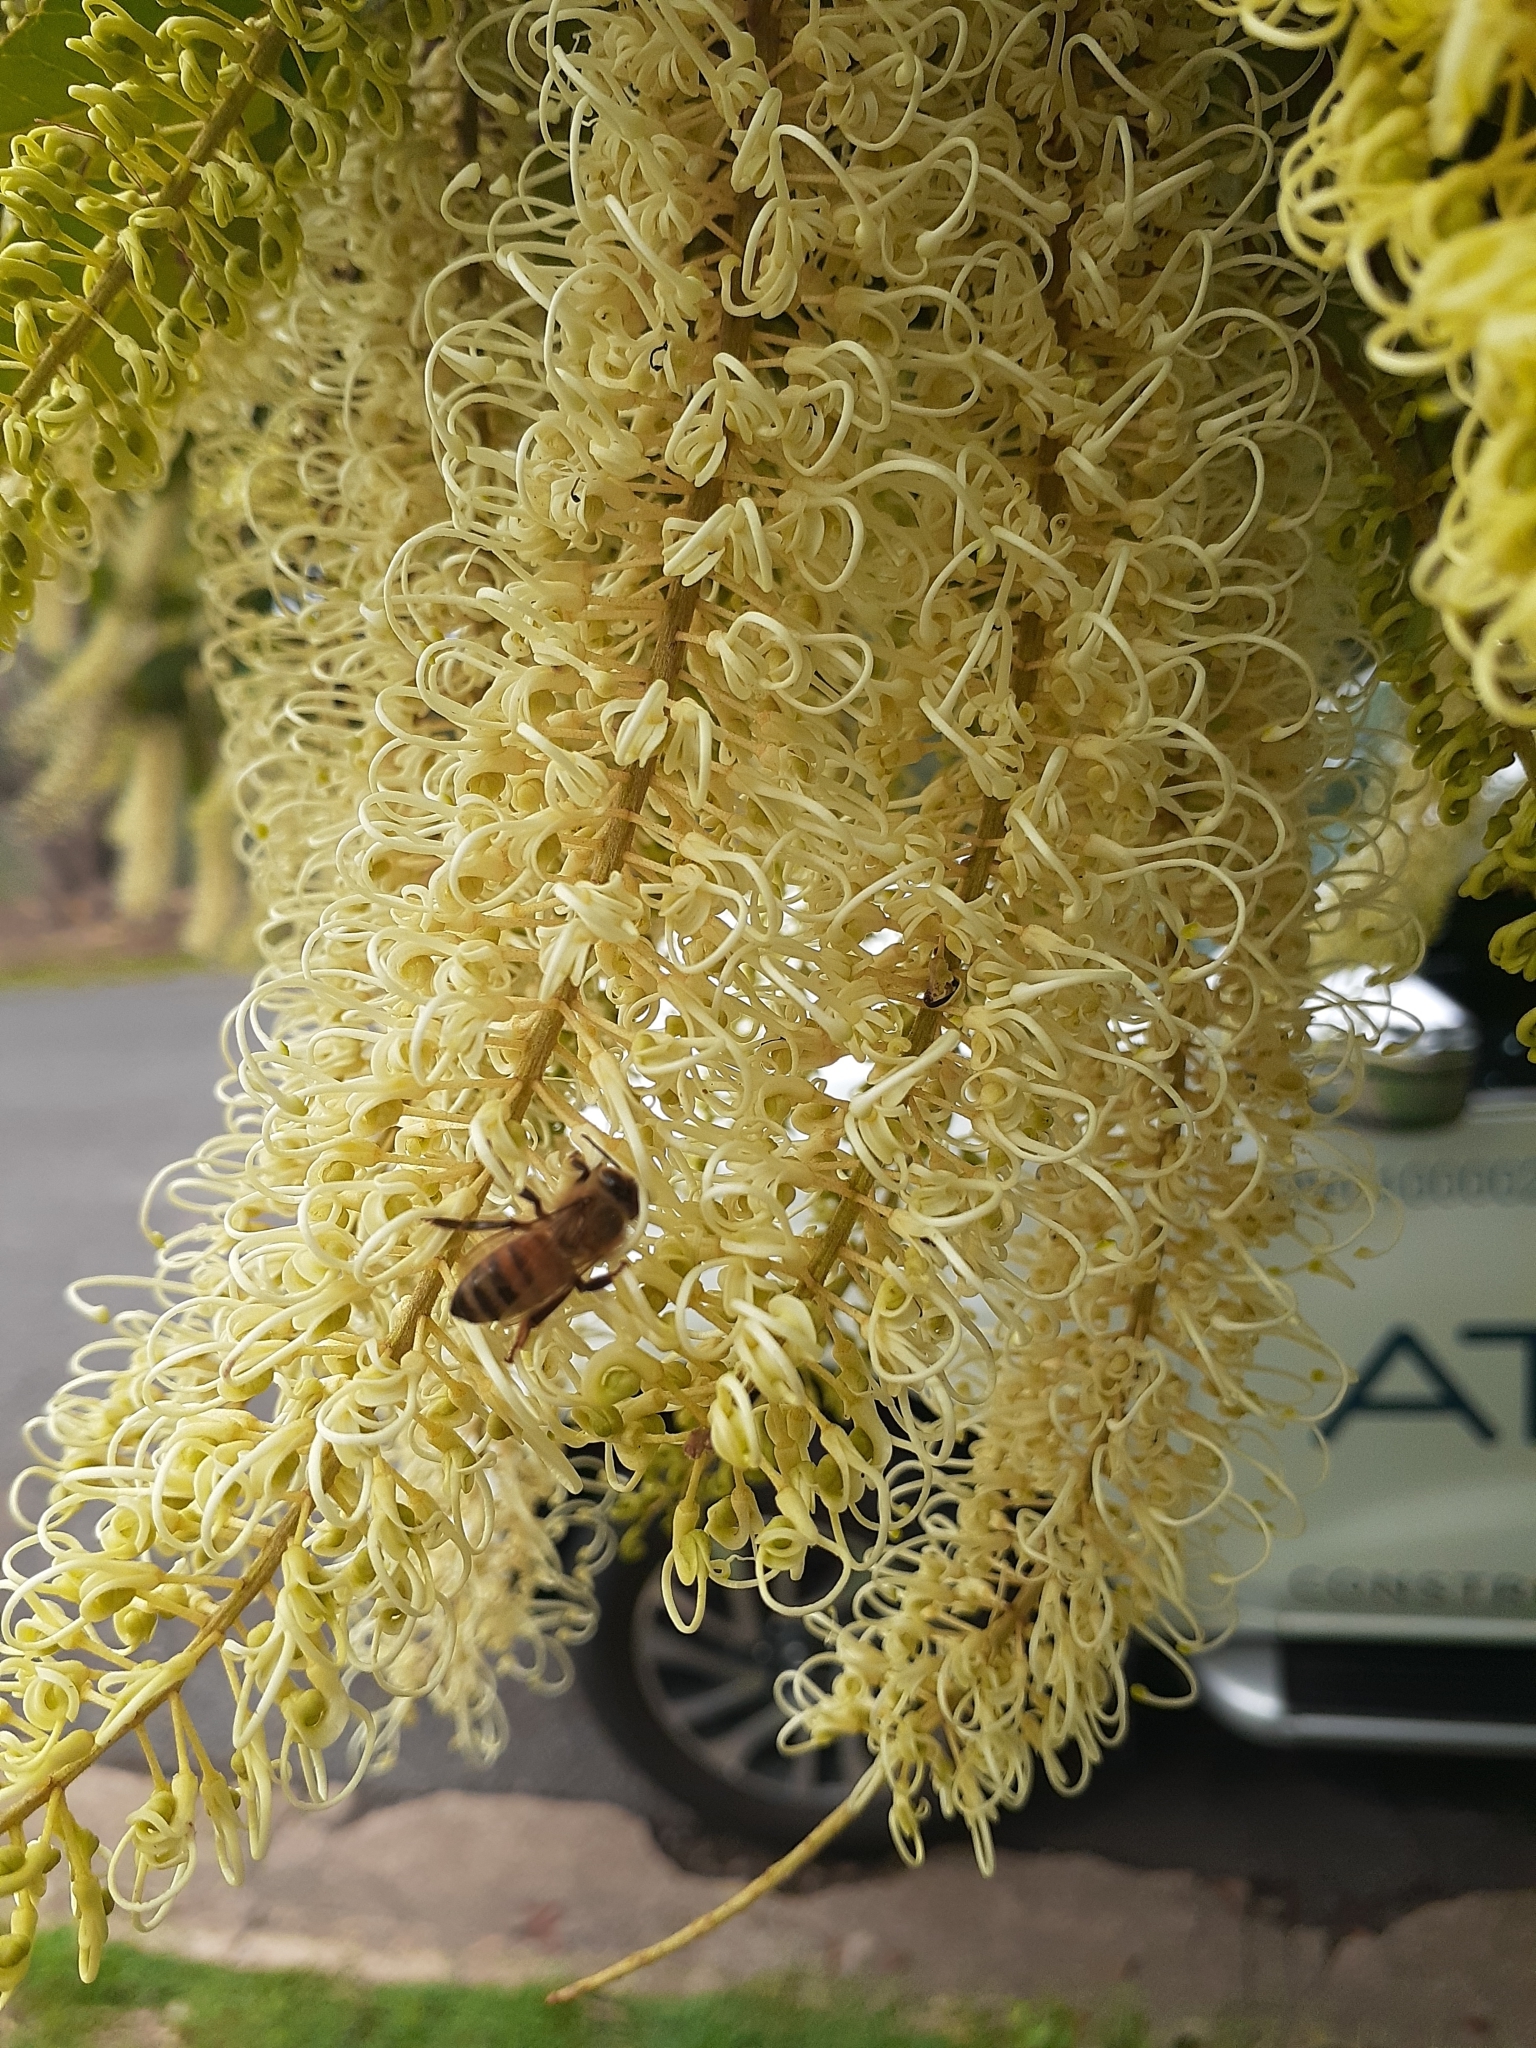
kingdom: Animalia
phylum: Arthropoda
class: Insecta
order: Hymenoptera
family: Apidae
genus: Apis
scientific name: Apis mellifera
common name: Honey bee
